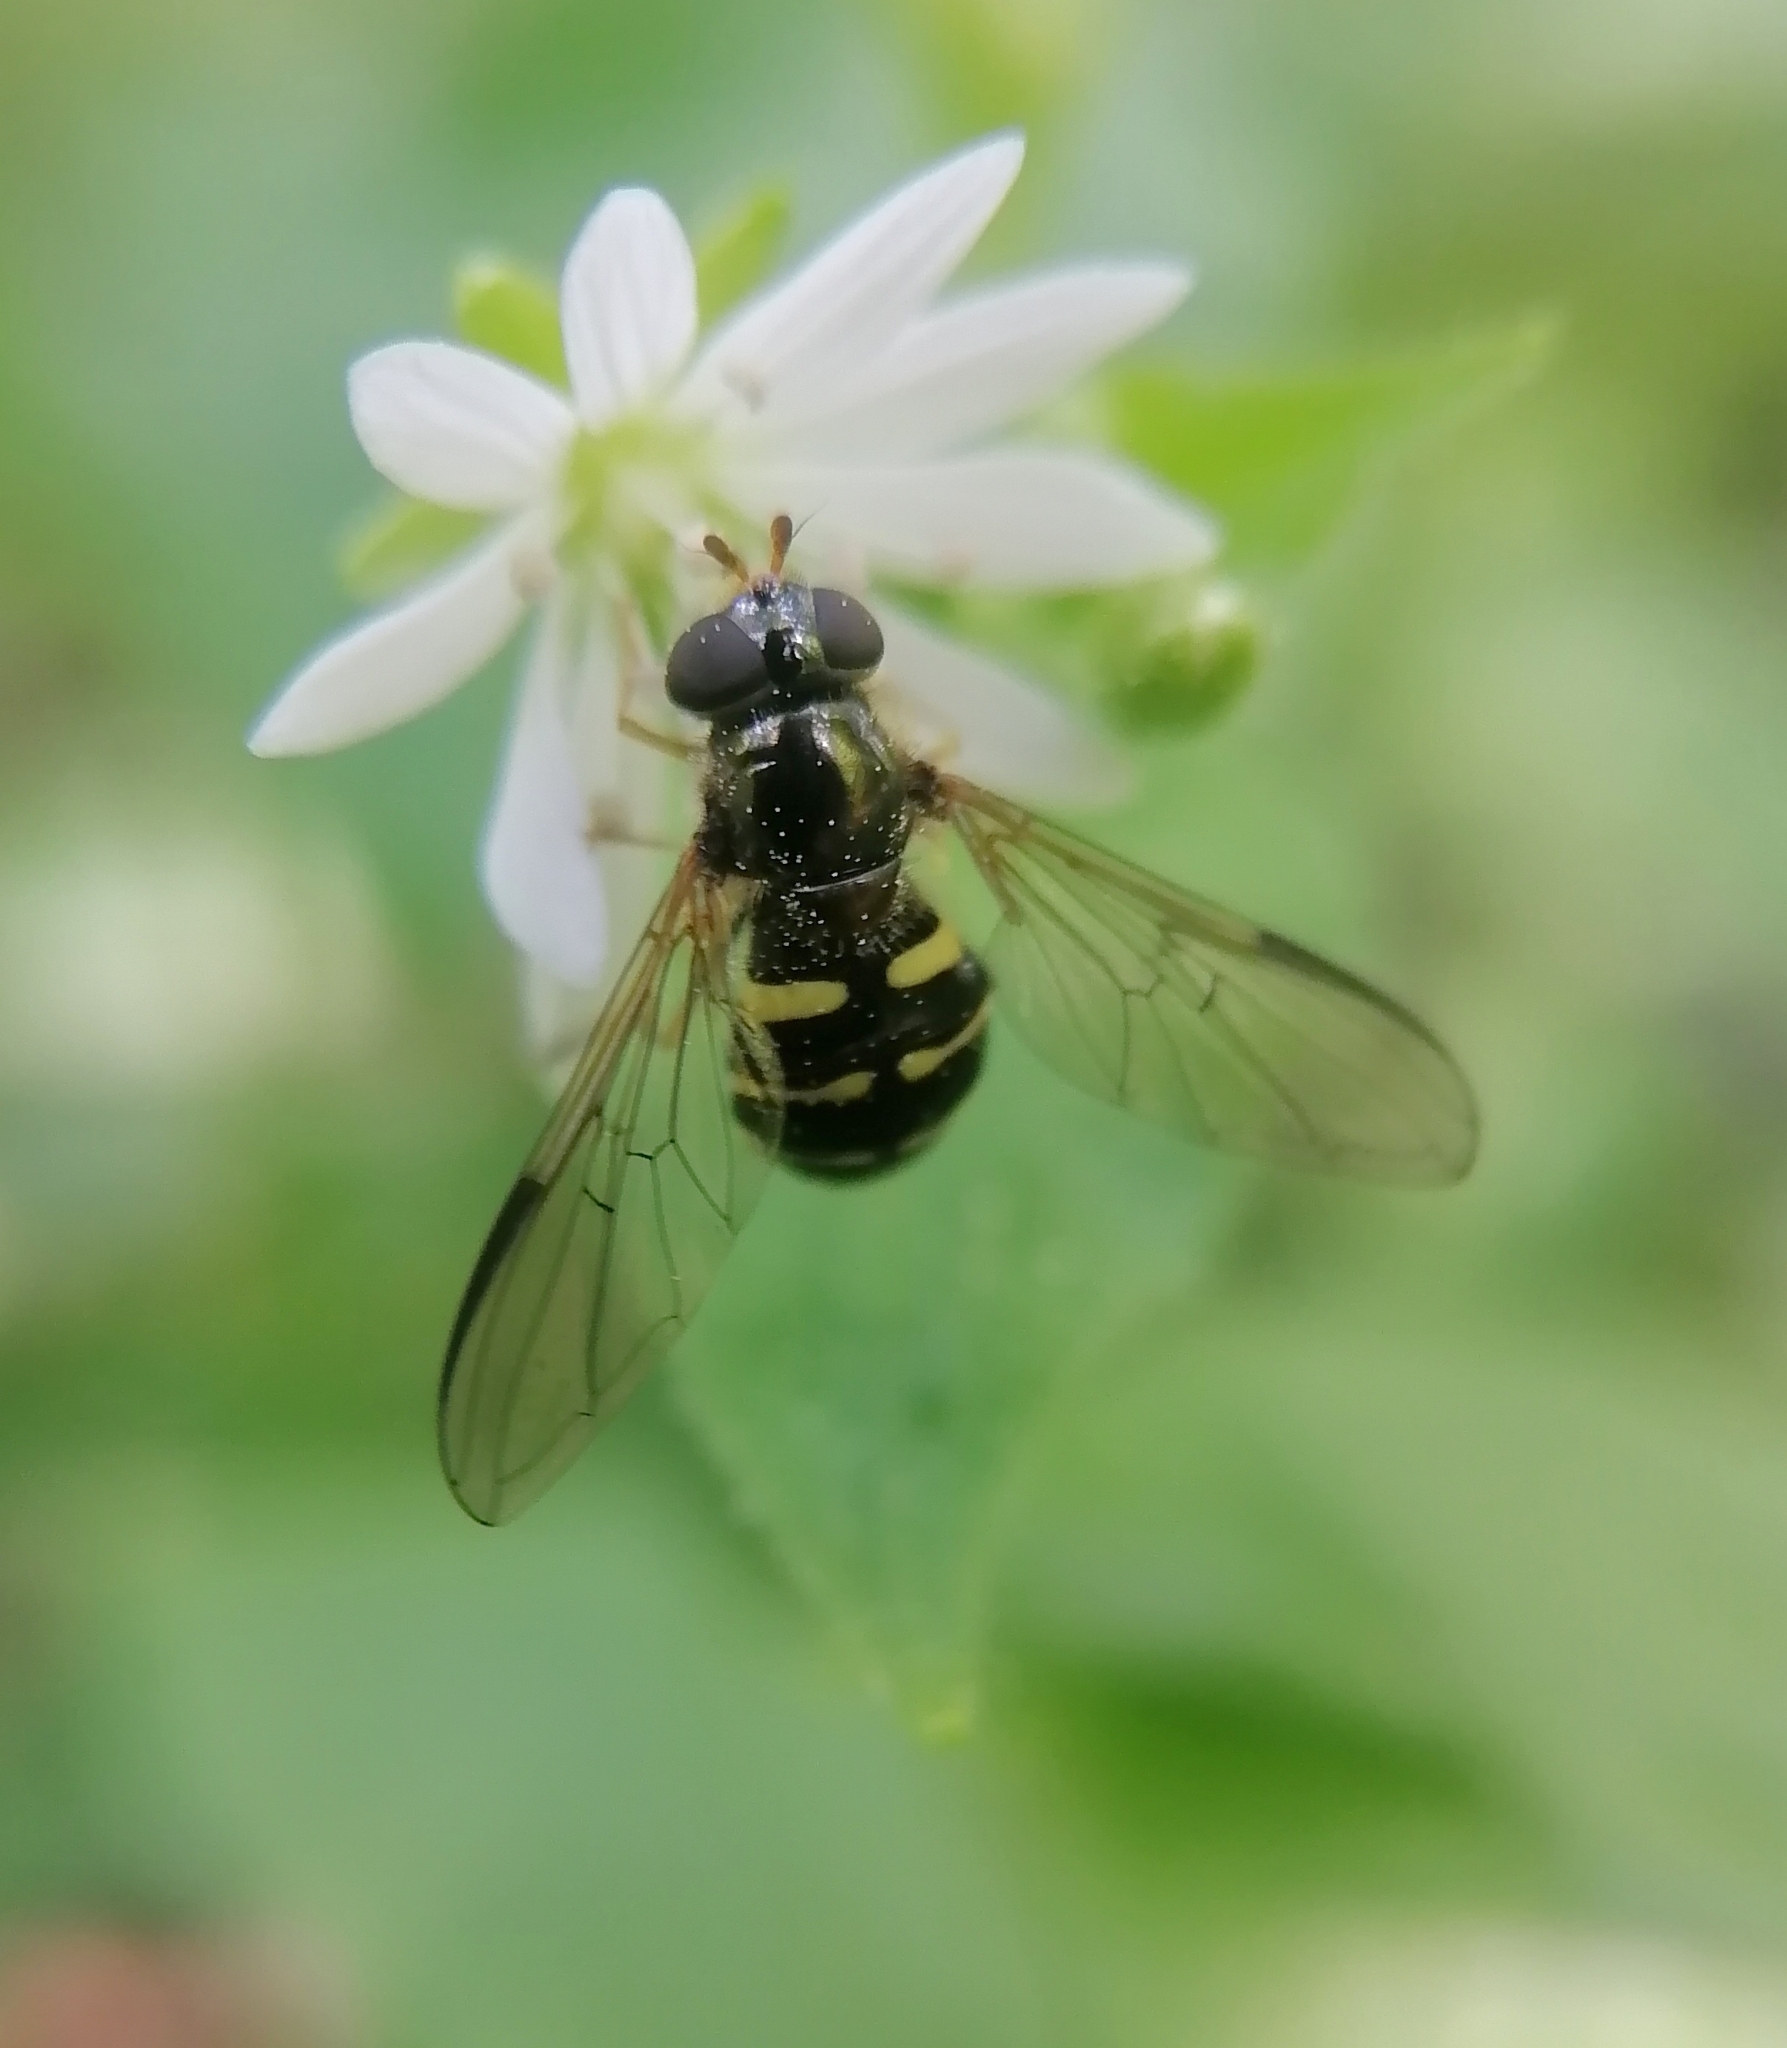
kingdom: Animalia
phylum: Arthropoda
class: Insecta
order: Diptera
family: Syrphidae
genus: Dasysyrphus
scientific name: Dasysyrphus tricinctus
